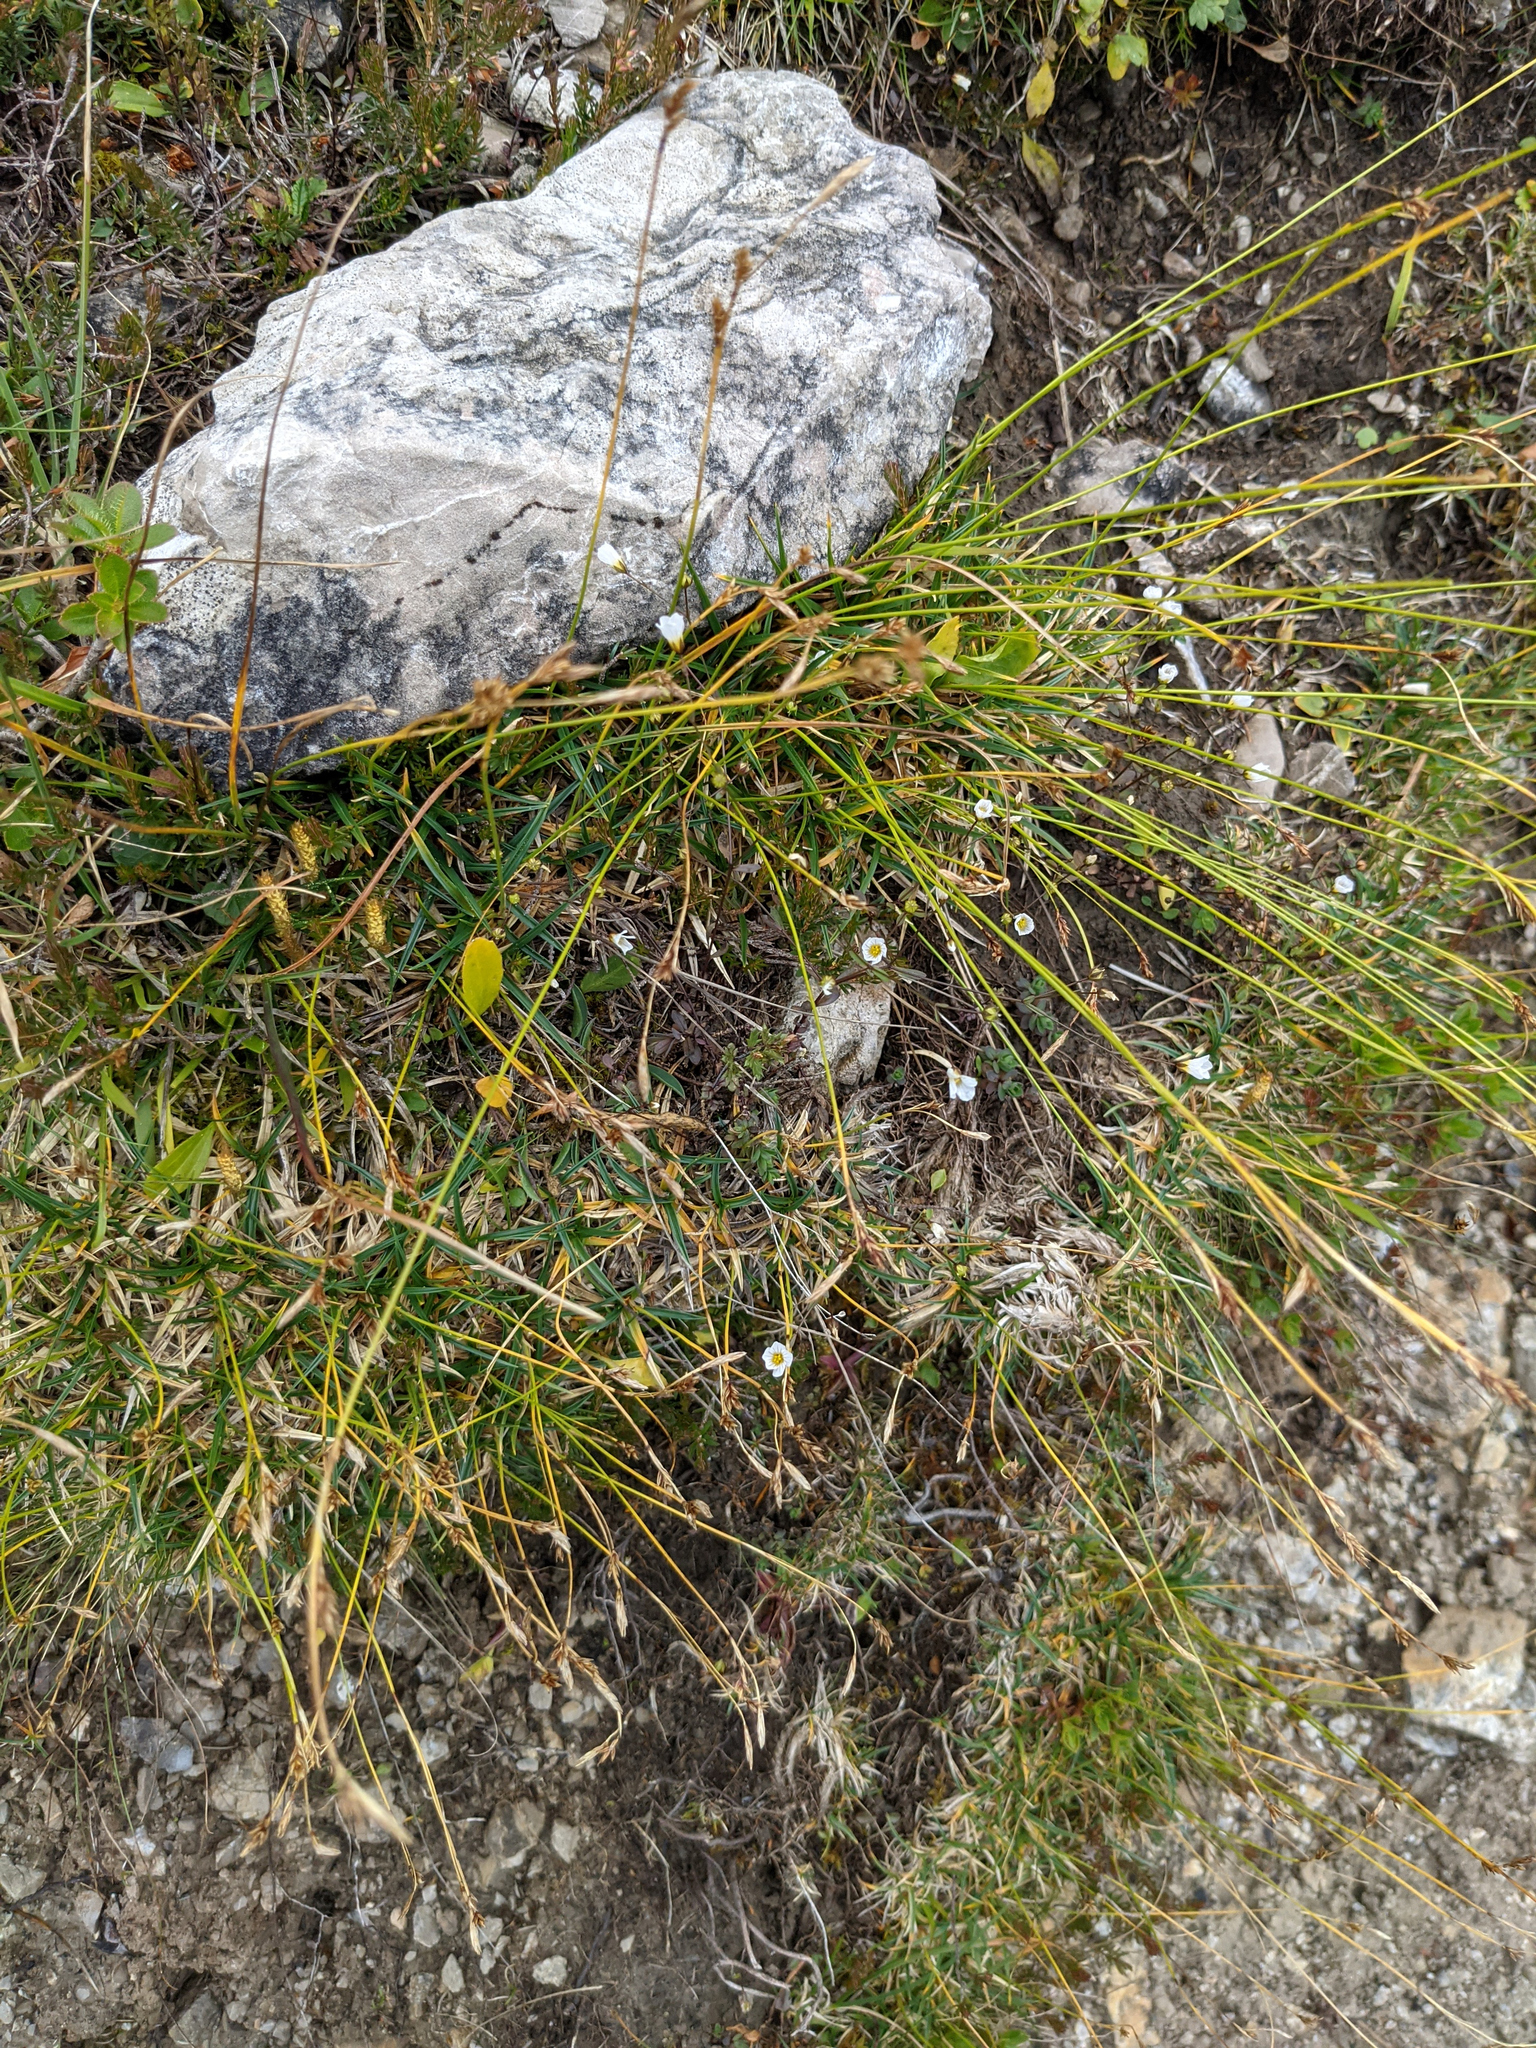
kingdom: Plantae
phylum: Tracheophyta
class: Magnoliopsida
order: Malpighiales
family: Linaceae
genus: Linum
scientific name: Linum catharticum
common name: Fairy flax
